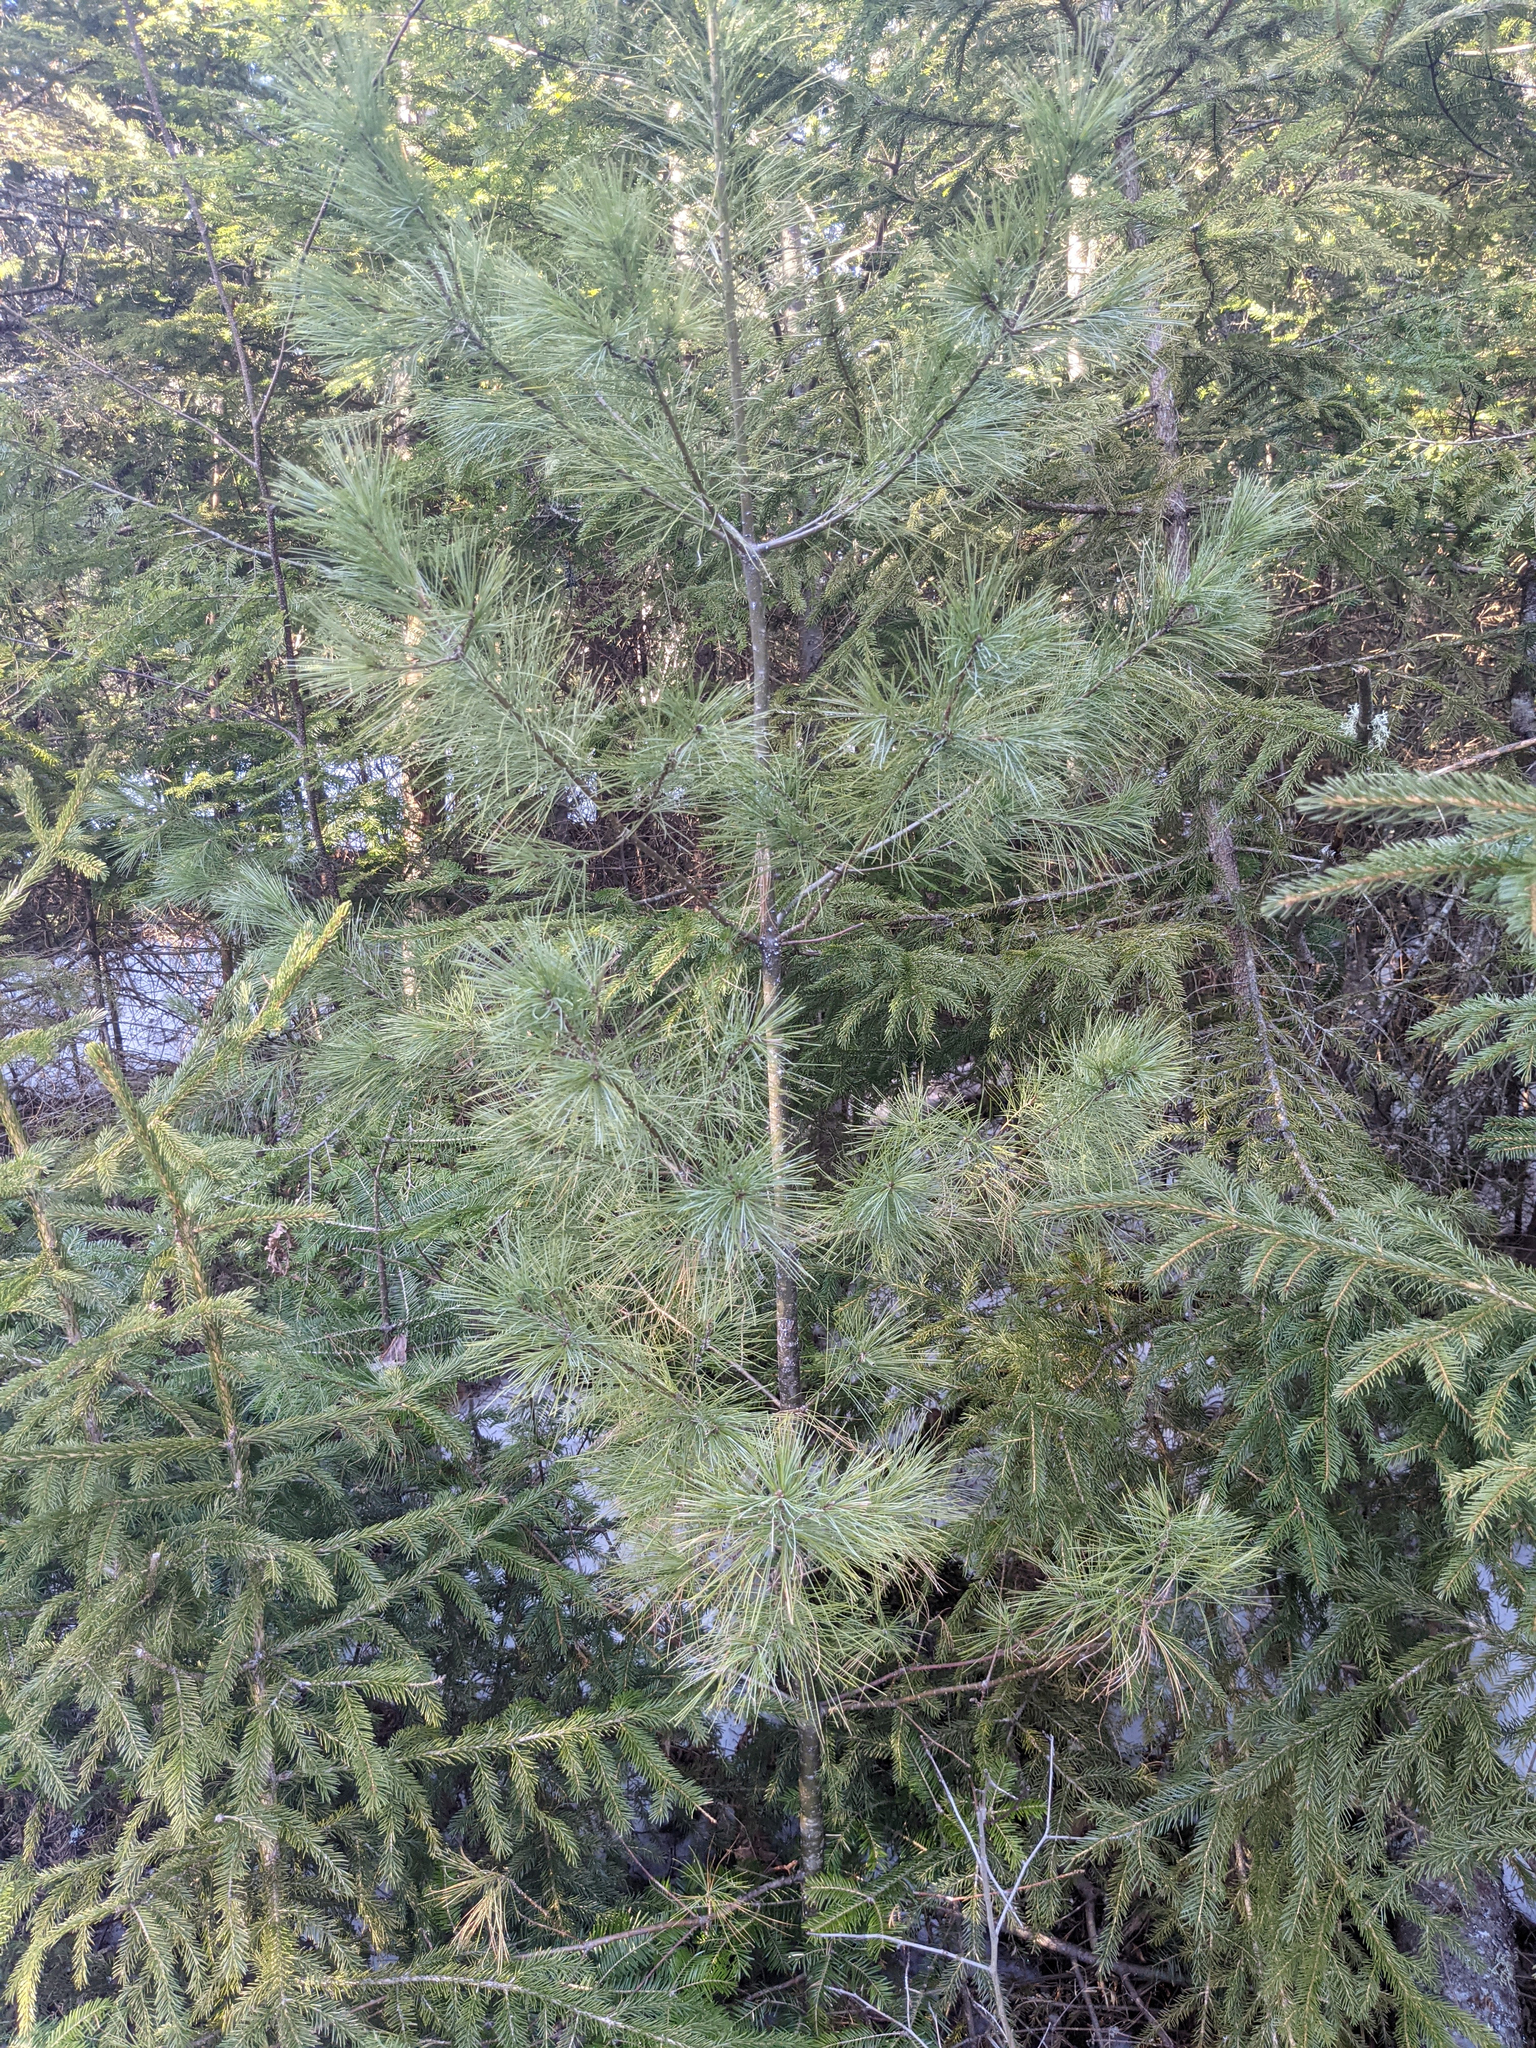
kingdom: Plantae
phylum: Tracheophyta
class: Pinopsida
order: Pinales
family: Pinaceae
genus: Pinus
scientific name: Pinus strobus
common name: Weymouth pine
